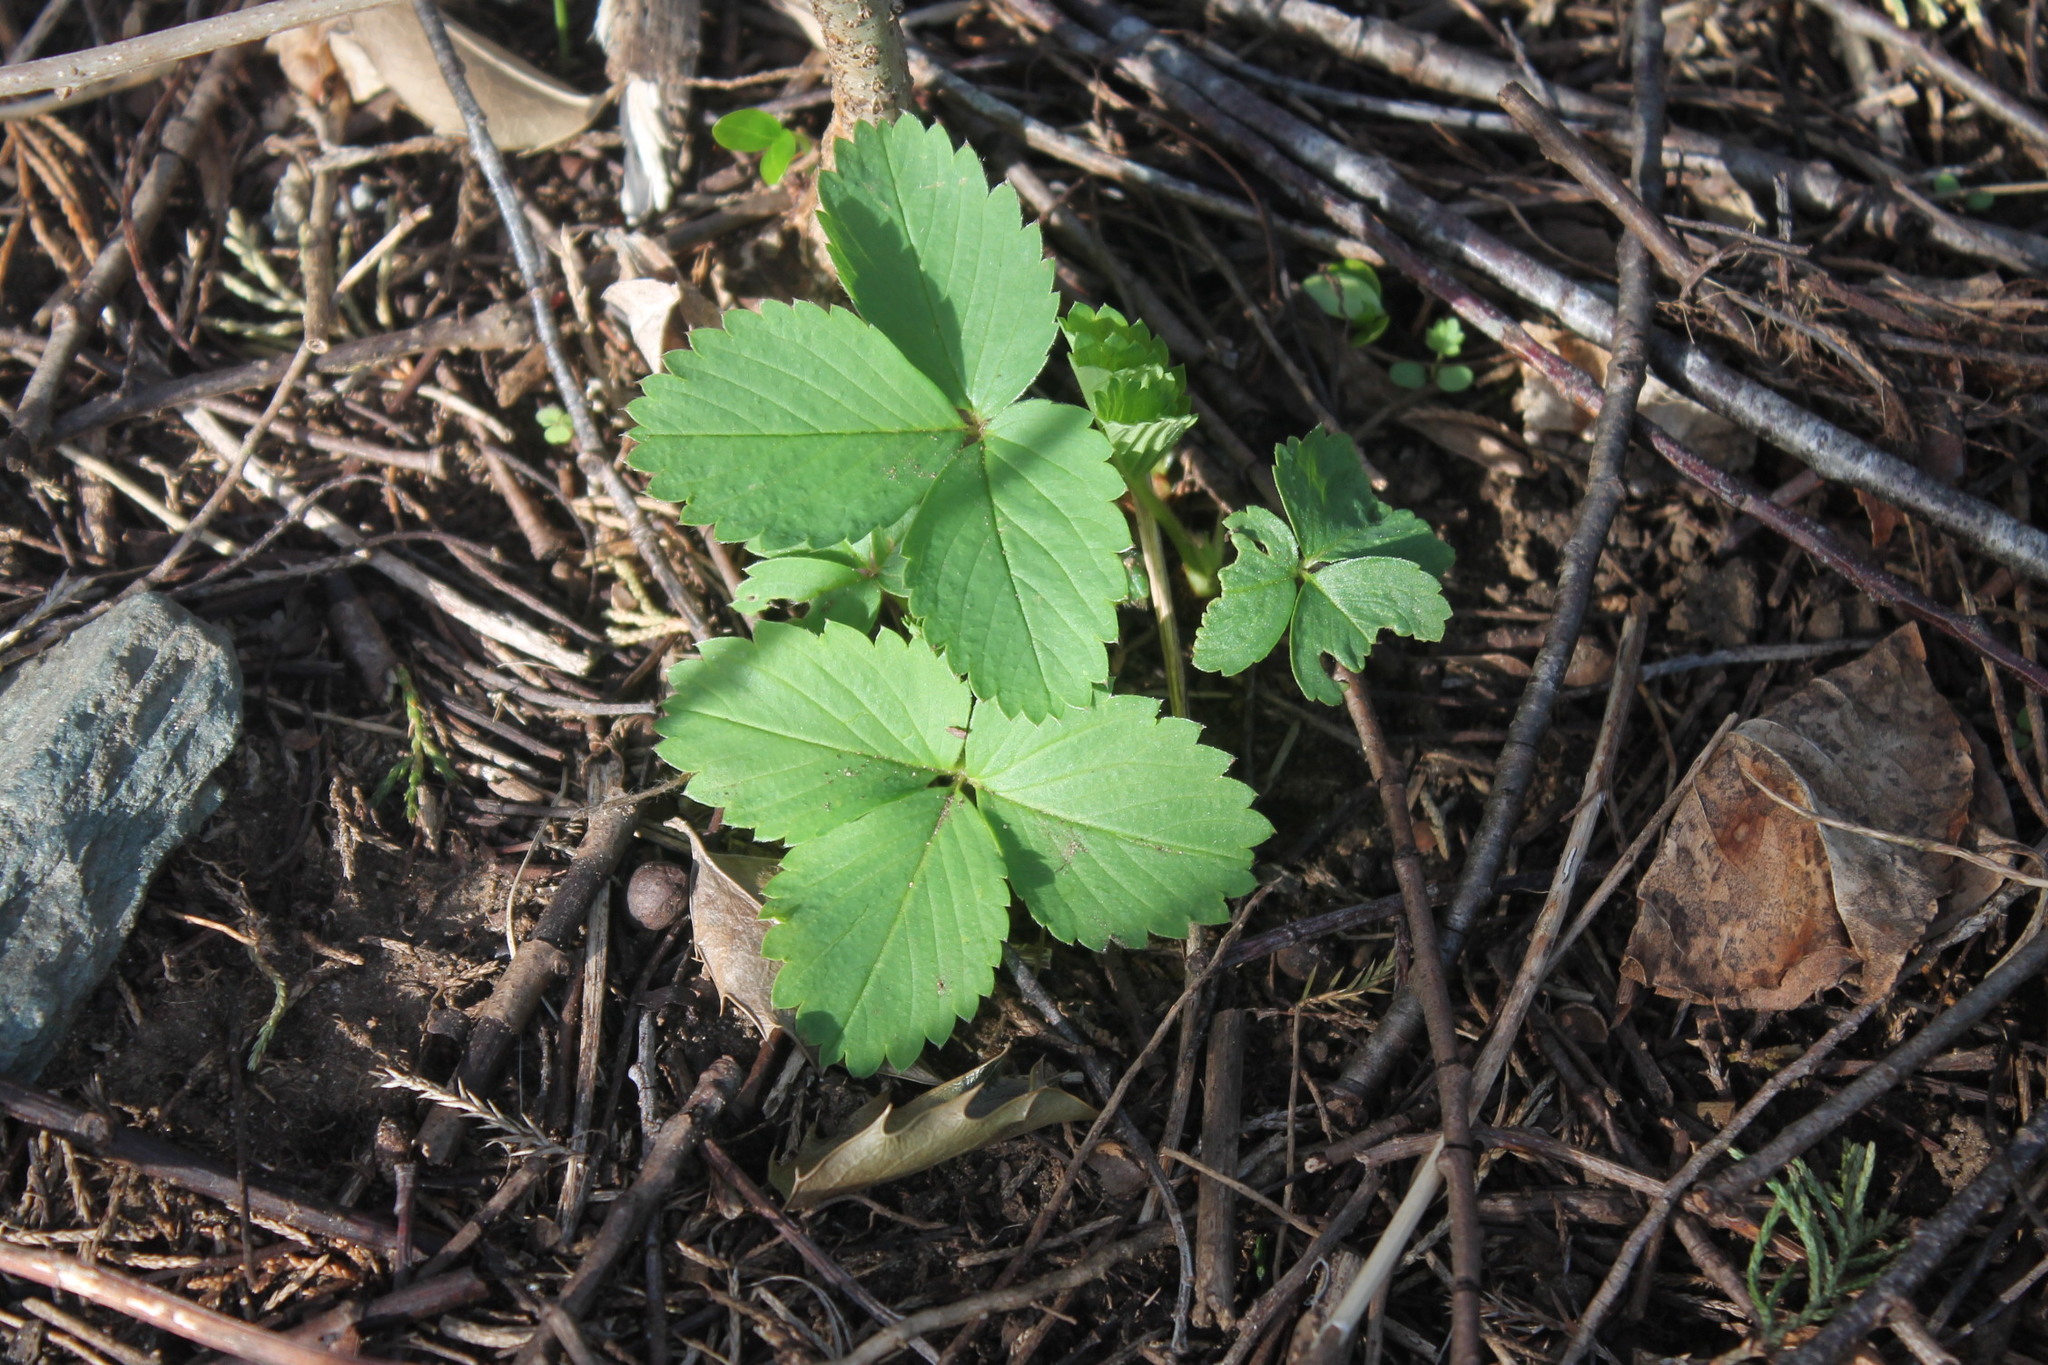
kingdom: Plantae
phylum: Tracheophyta
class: Magnoliopsida
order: Rosales
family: Rosaceae
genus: Fragaria
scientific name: Fragaria virginiana
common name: Thickleaved wild strawberry
